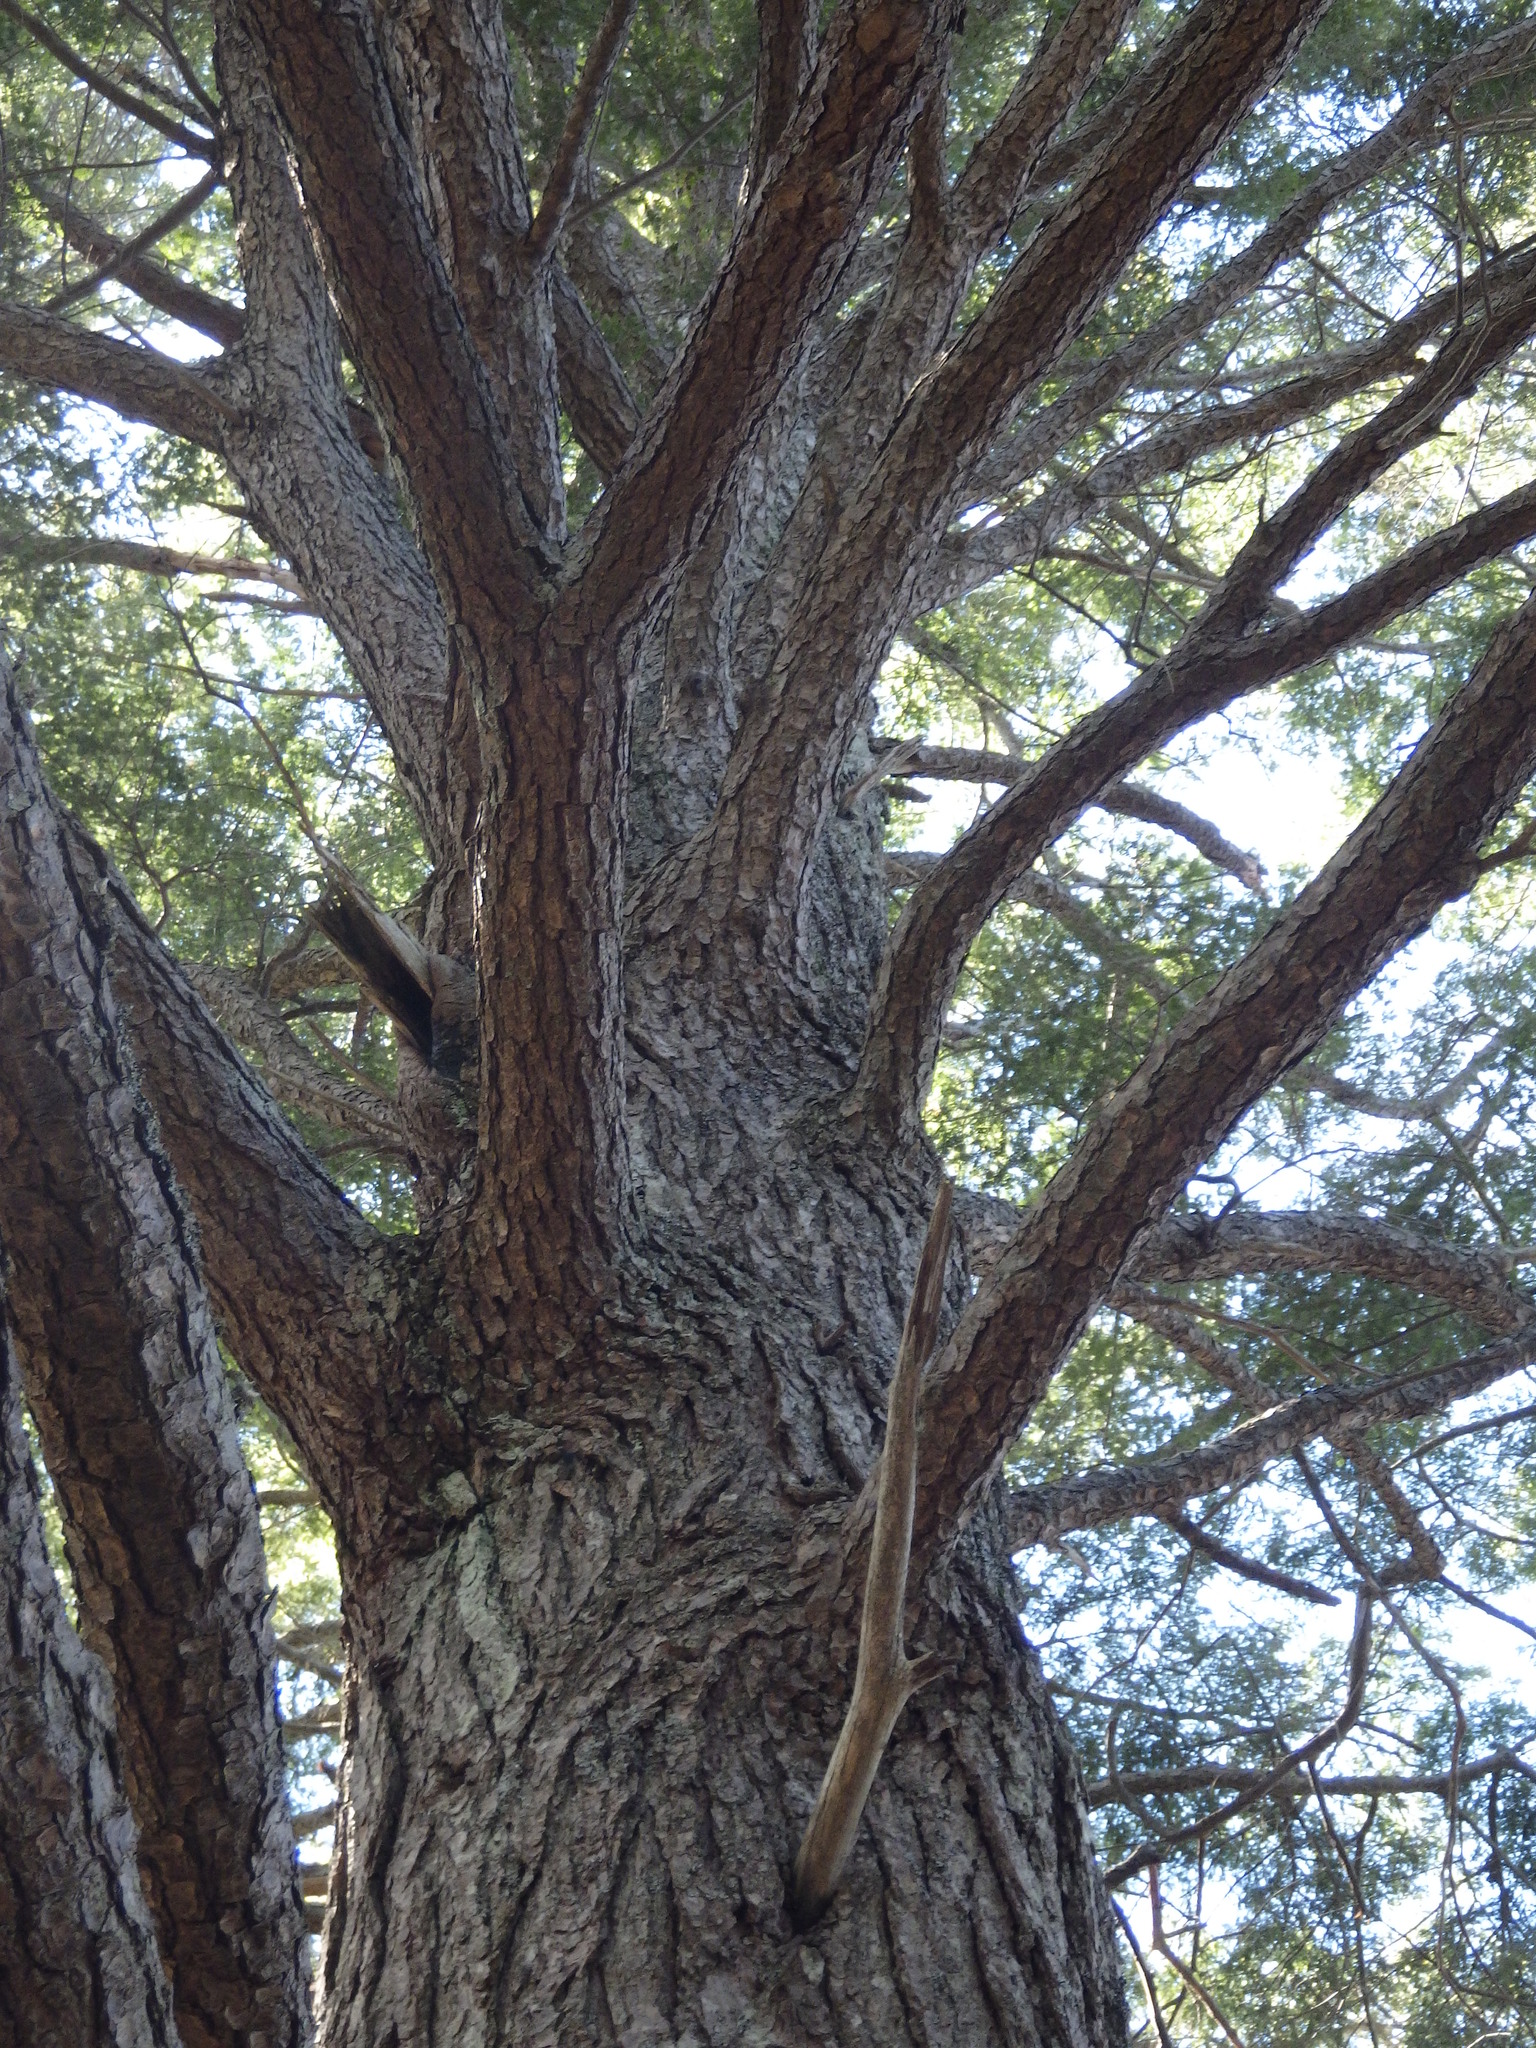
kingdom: Plantae
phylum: Tracheophyta
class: Pinopsida
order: Pinales
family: Pinaceae
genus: Tsuga
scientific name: Tsuga canadensis
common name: Eastern hemlock
